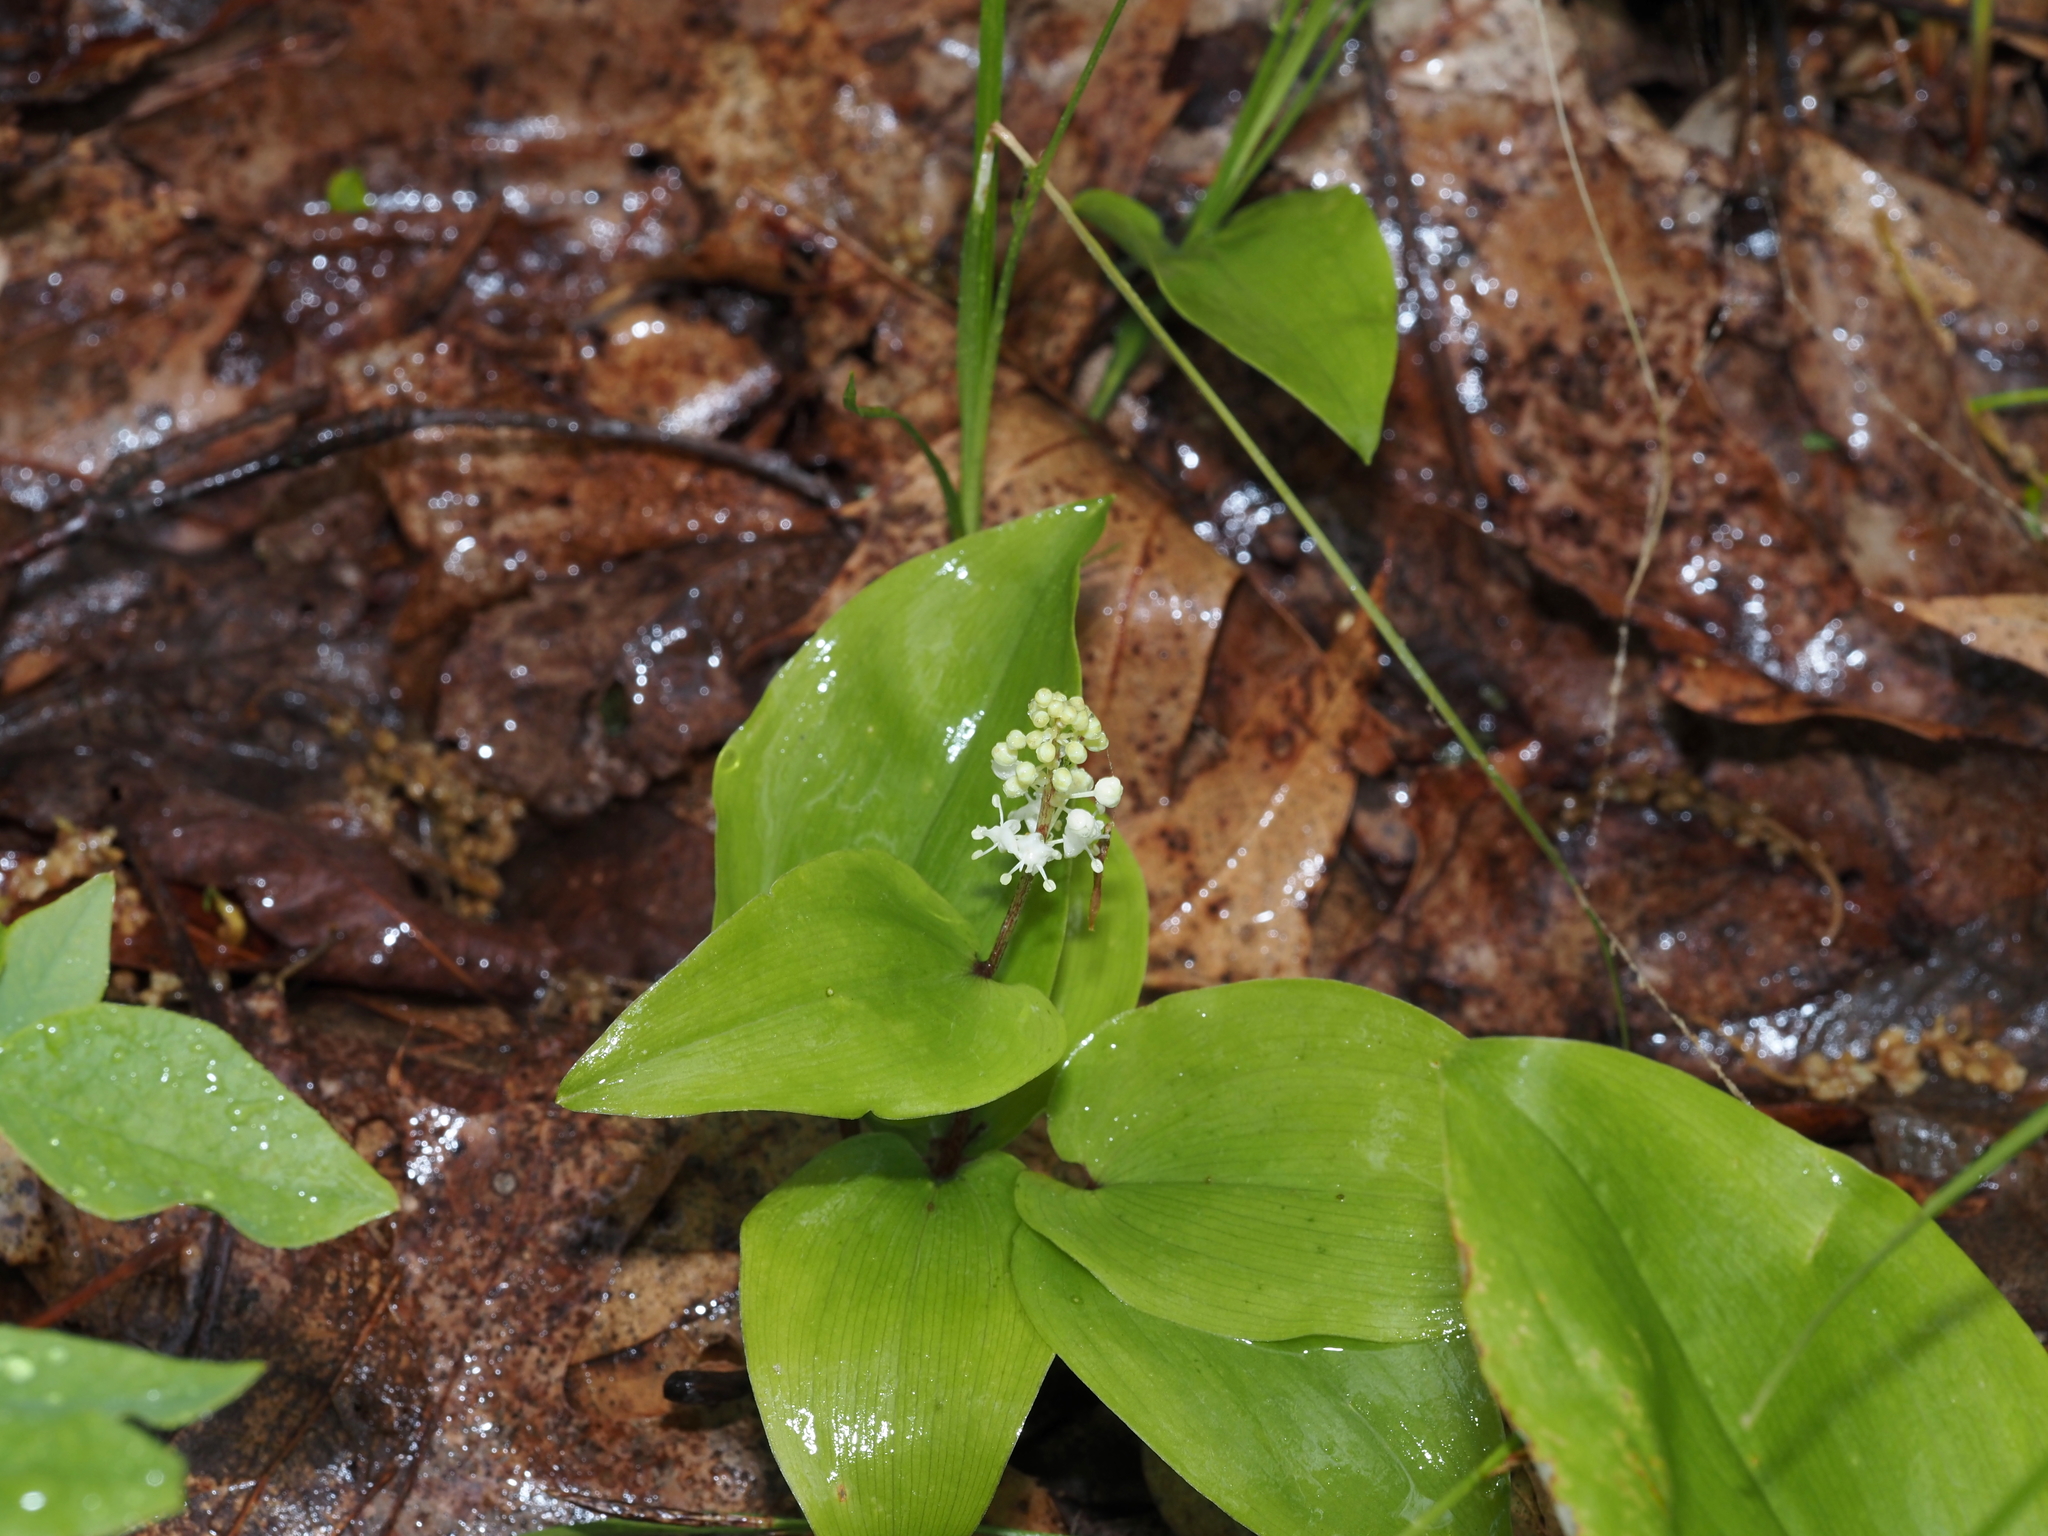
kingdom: Plantae
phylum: Tracheophyta
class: Liliopsida
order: Asparagales
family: Asparagaceae
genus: Maianthemum
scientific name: Maianthemum canadense
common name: False lily-of-the-valley
